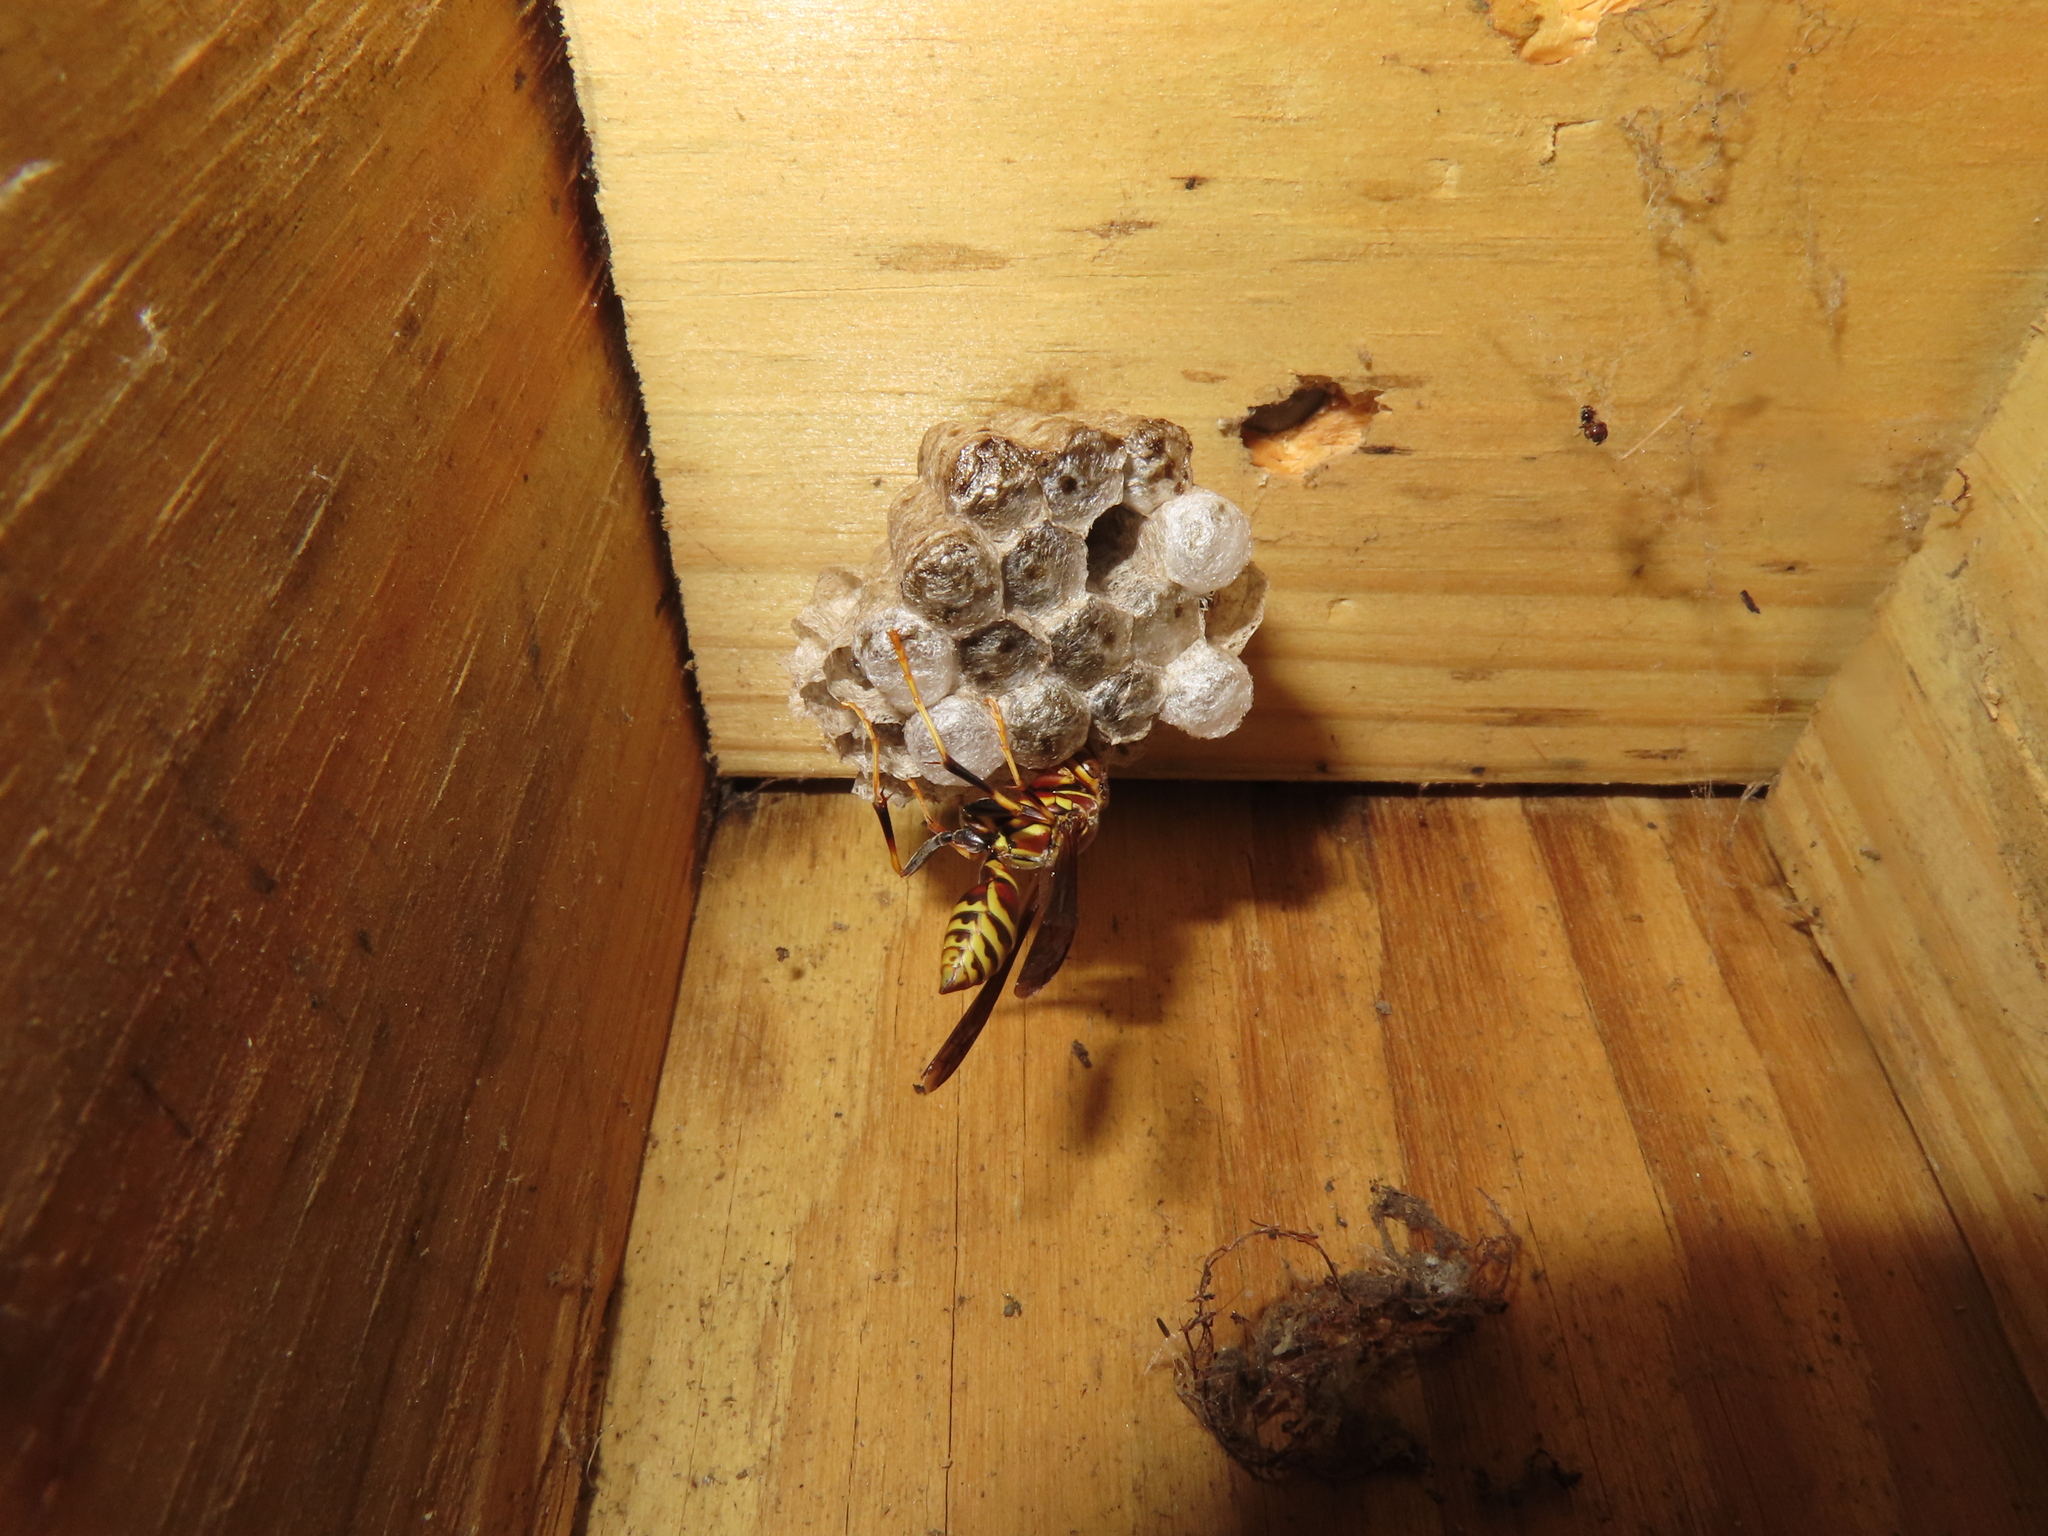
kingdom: Animalia
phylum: Arthropoda
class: Insecta
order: Hymenoptera
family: Eumenidae
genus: Polistes
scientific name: Polistes exclamans
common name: Paper wasp
